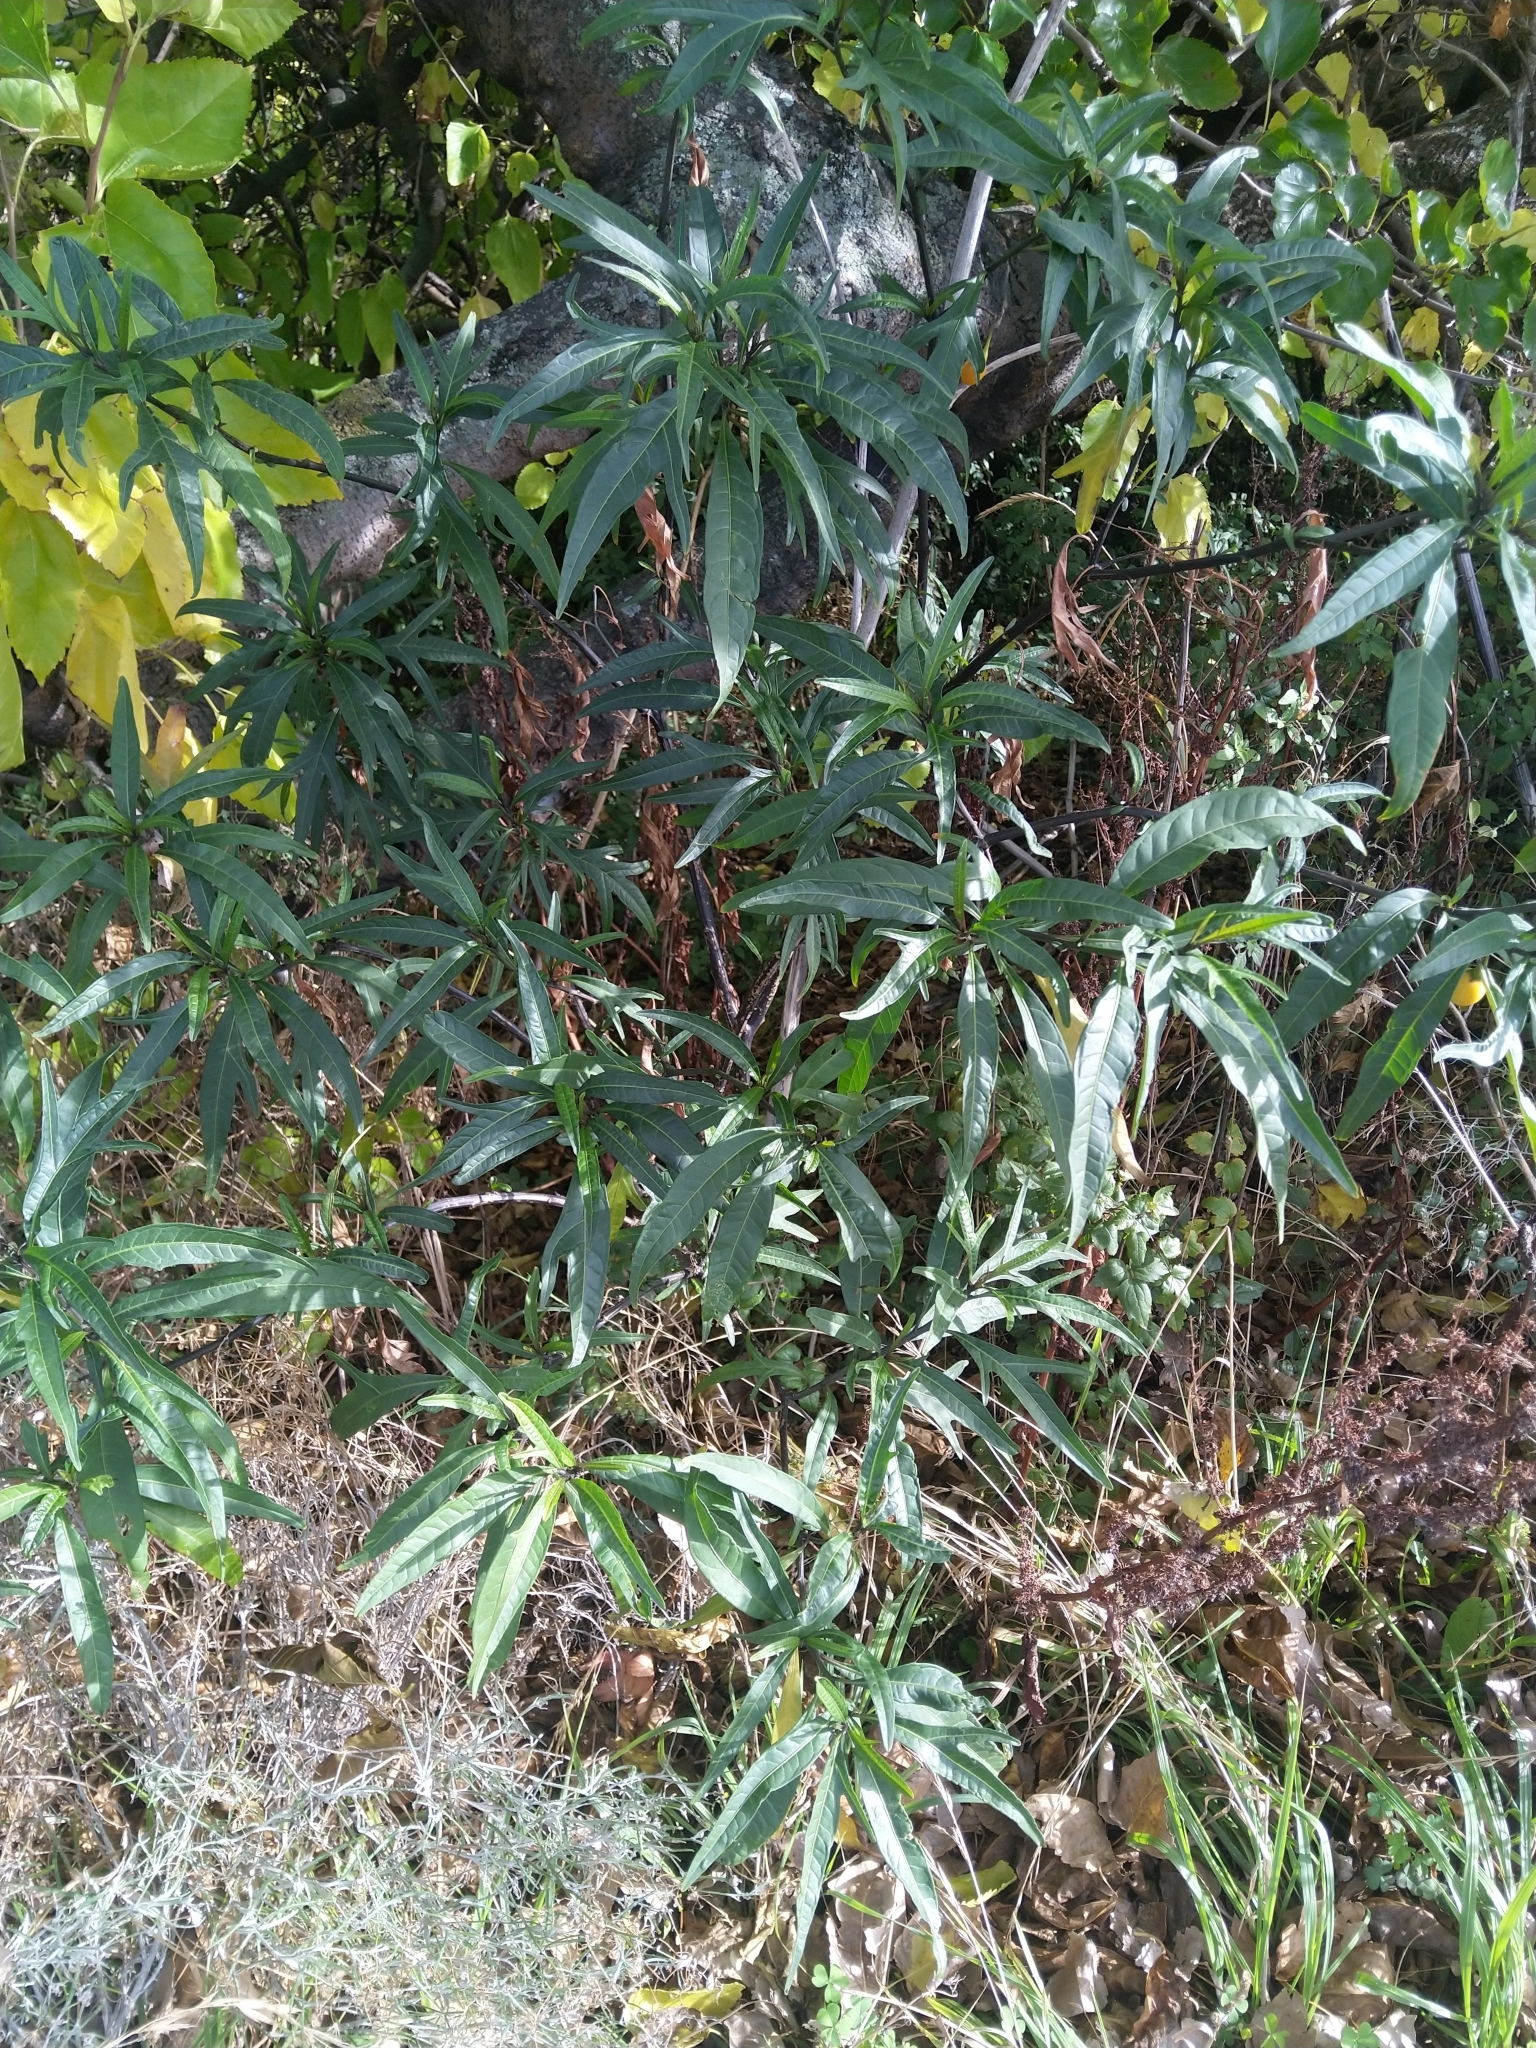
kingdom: Plantae
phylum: Tracheophyta
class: Magnoliopsida
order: Solanales
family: Solanaceae
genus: Solanum
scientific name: Solanum laciniatum
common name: Kangaroo-apple
